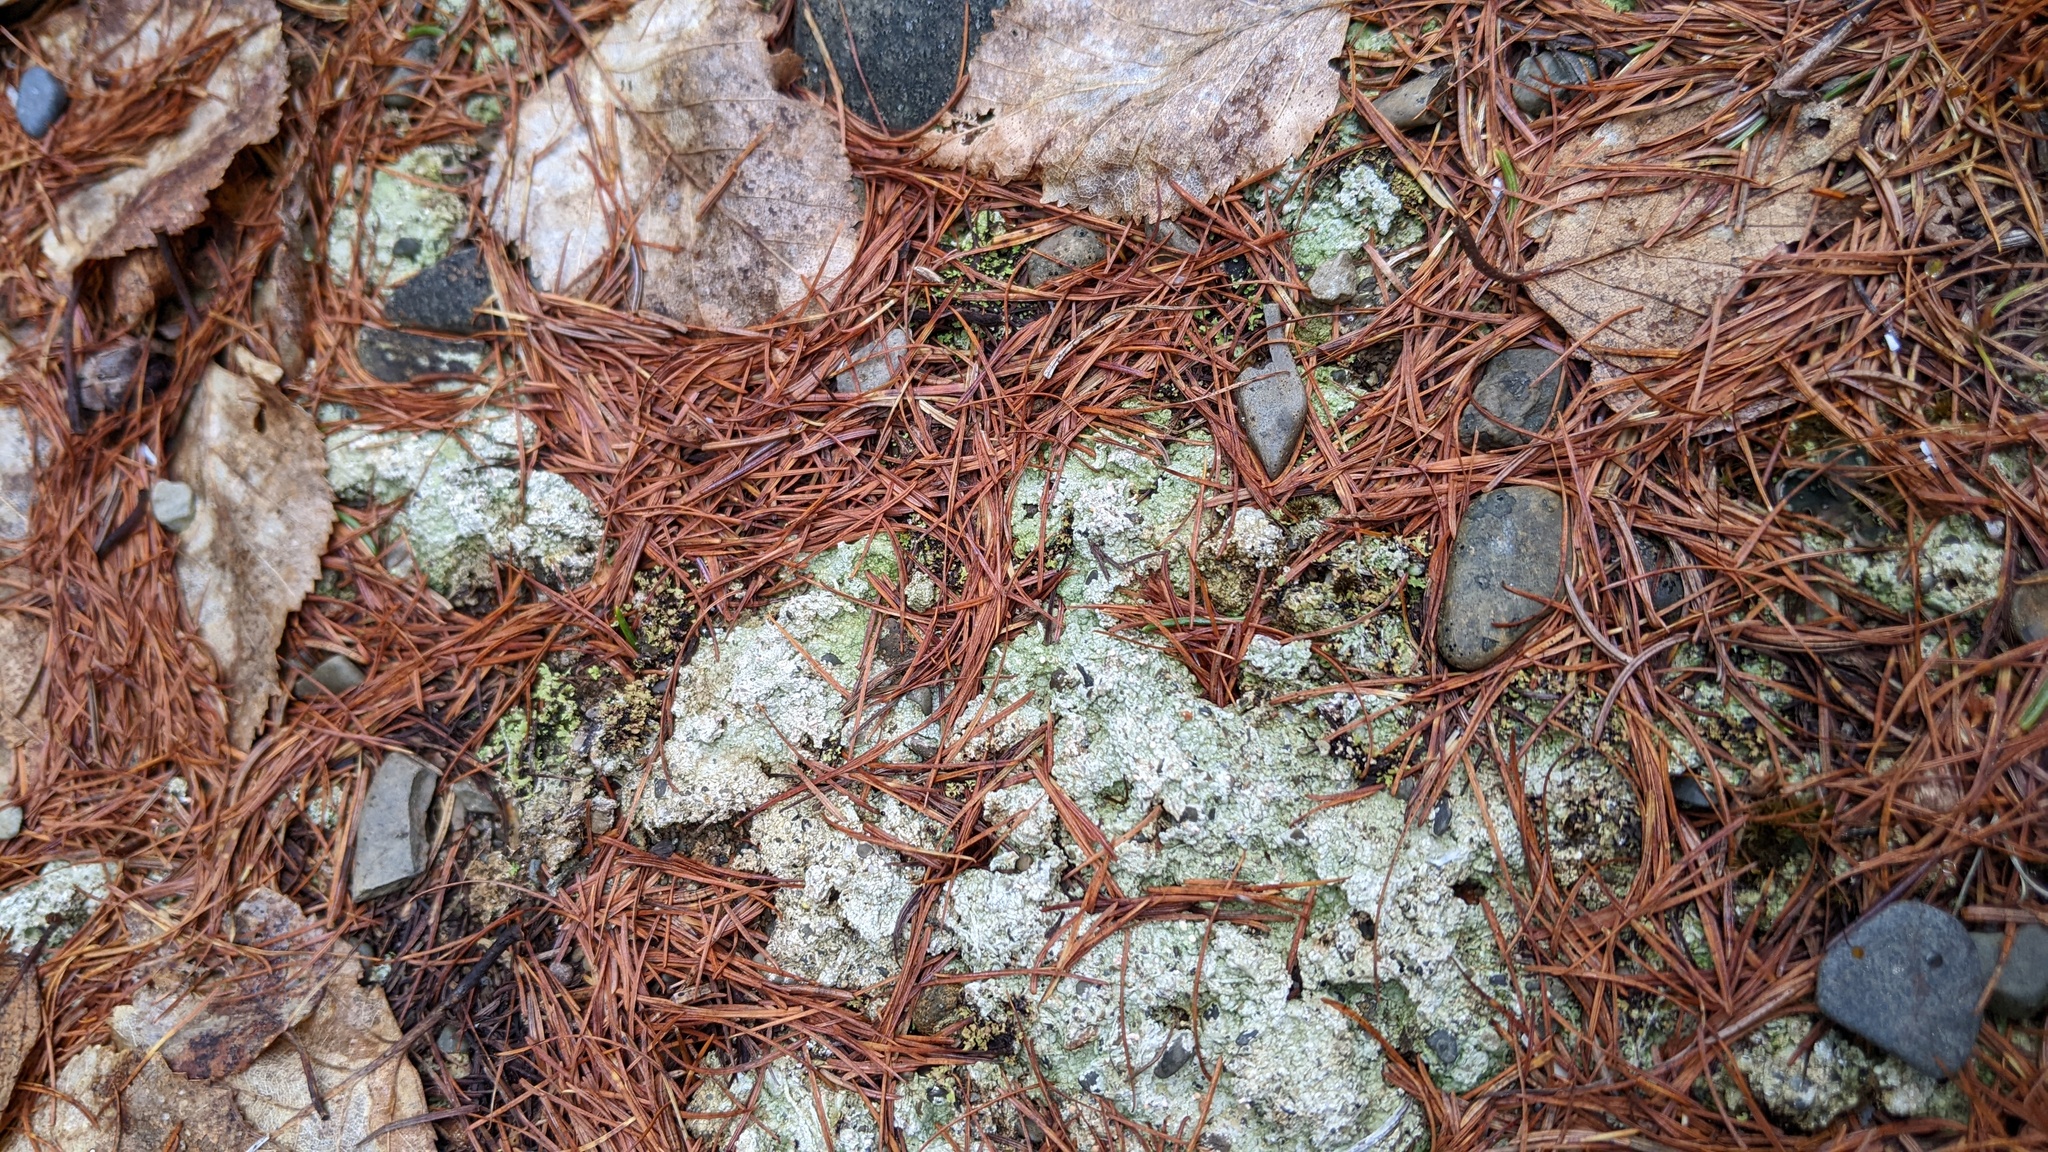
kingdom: Fungi
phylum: Ascomycota
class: Lecanoromycetes
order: Pertusariales
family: Icmadophilaceae
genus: Dibaeis
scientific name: Dibaeis baeomyces
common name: Pink earth lichen
